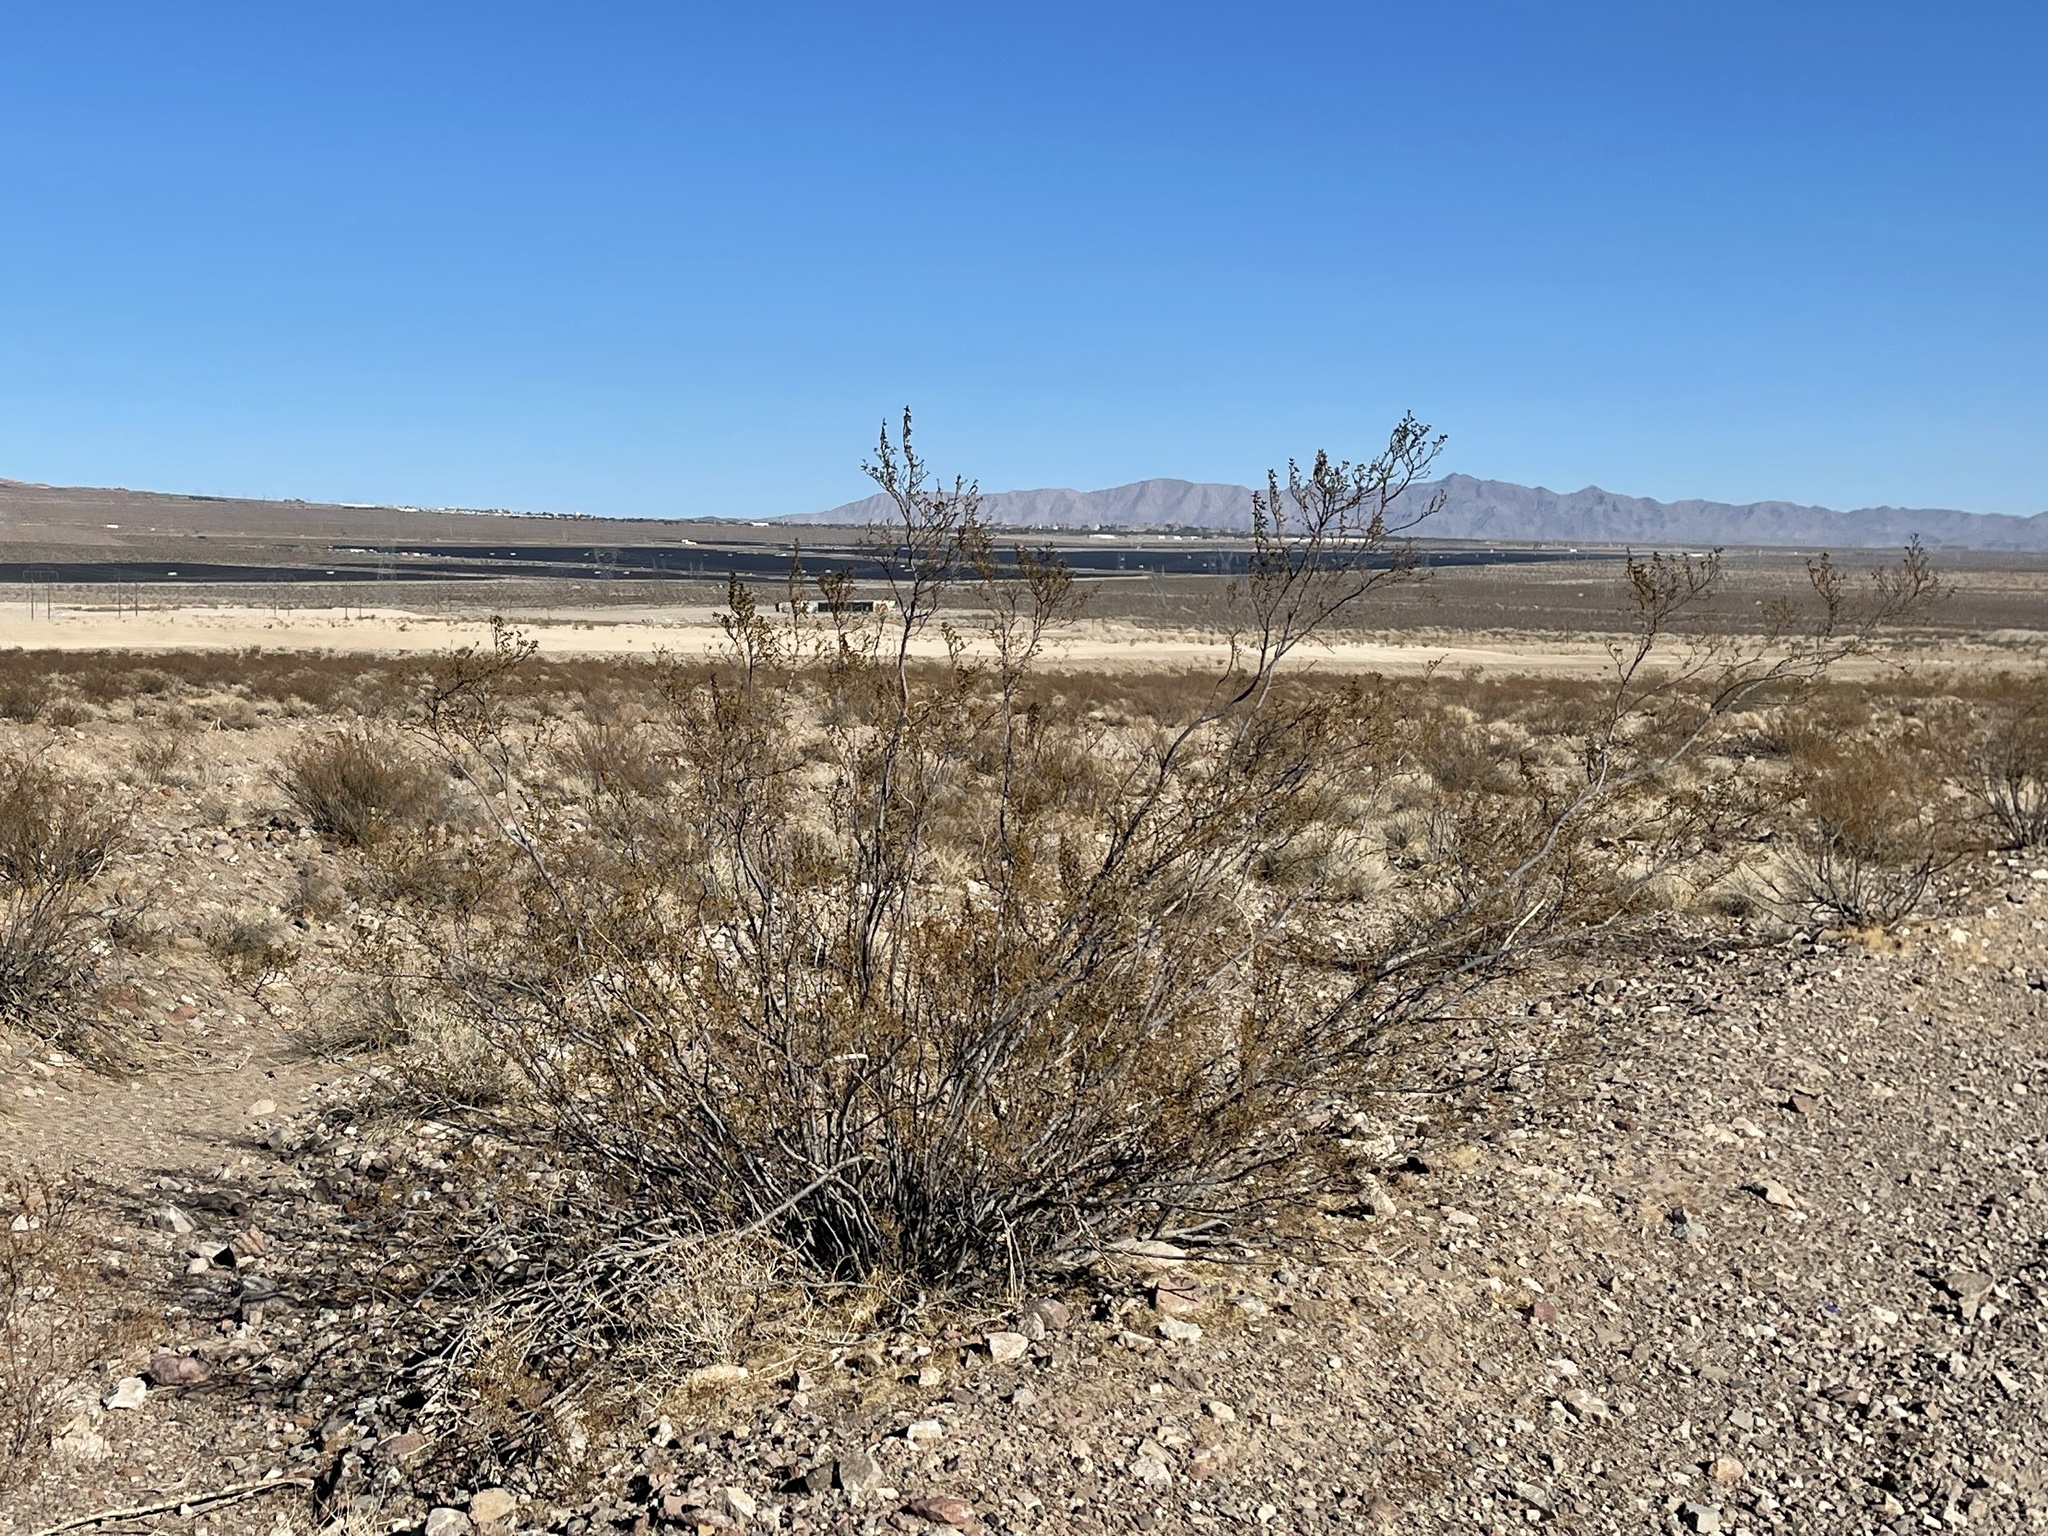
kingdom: Plantae
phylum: Tracheophyta
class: Magnoliopsida
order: Zygophyllales
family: Zygophyllaceae
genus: Larrea
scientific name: Larrea tridentata
